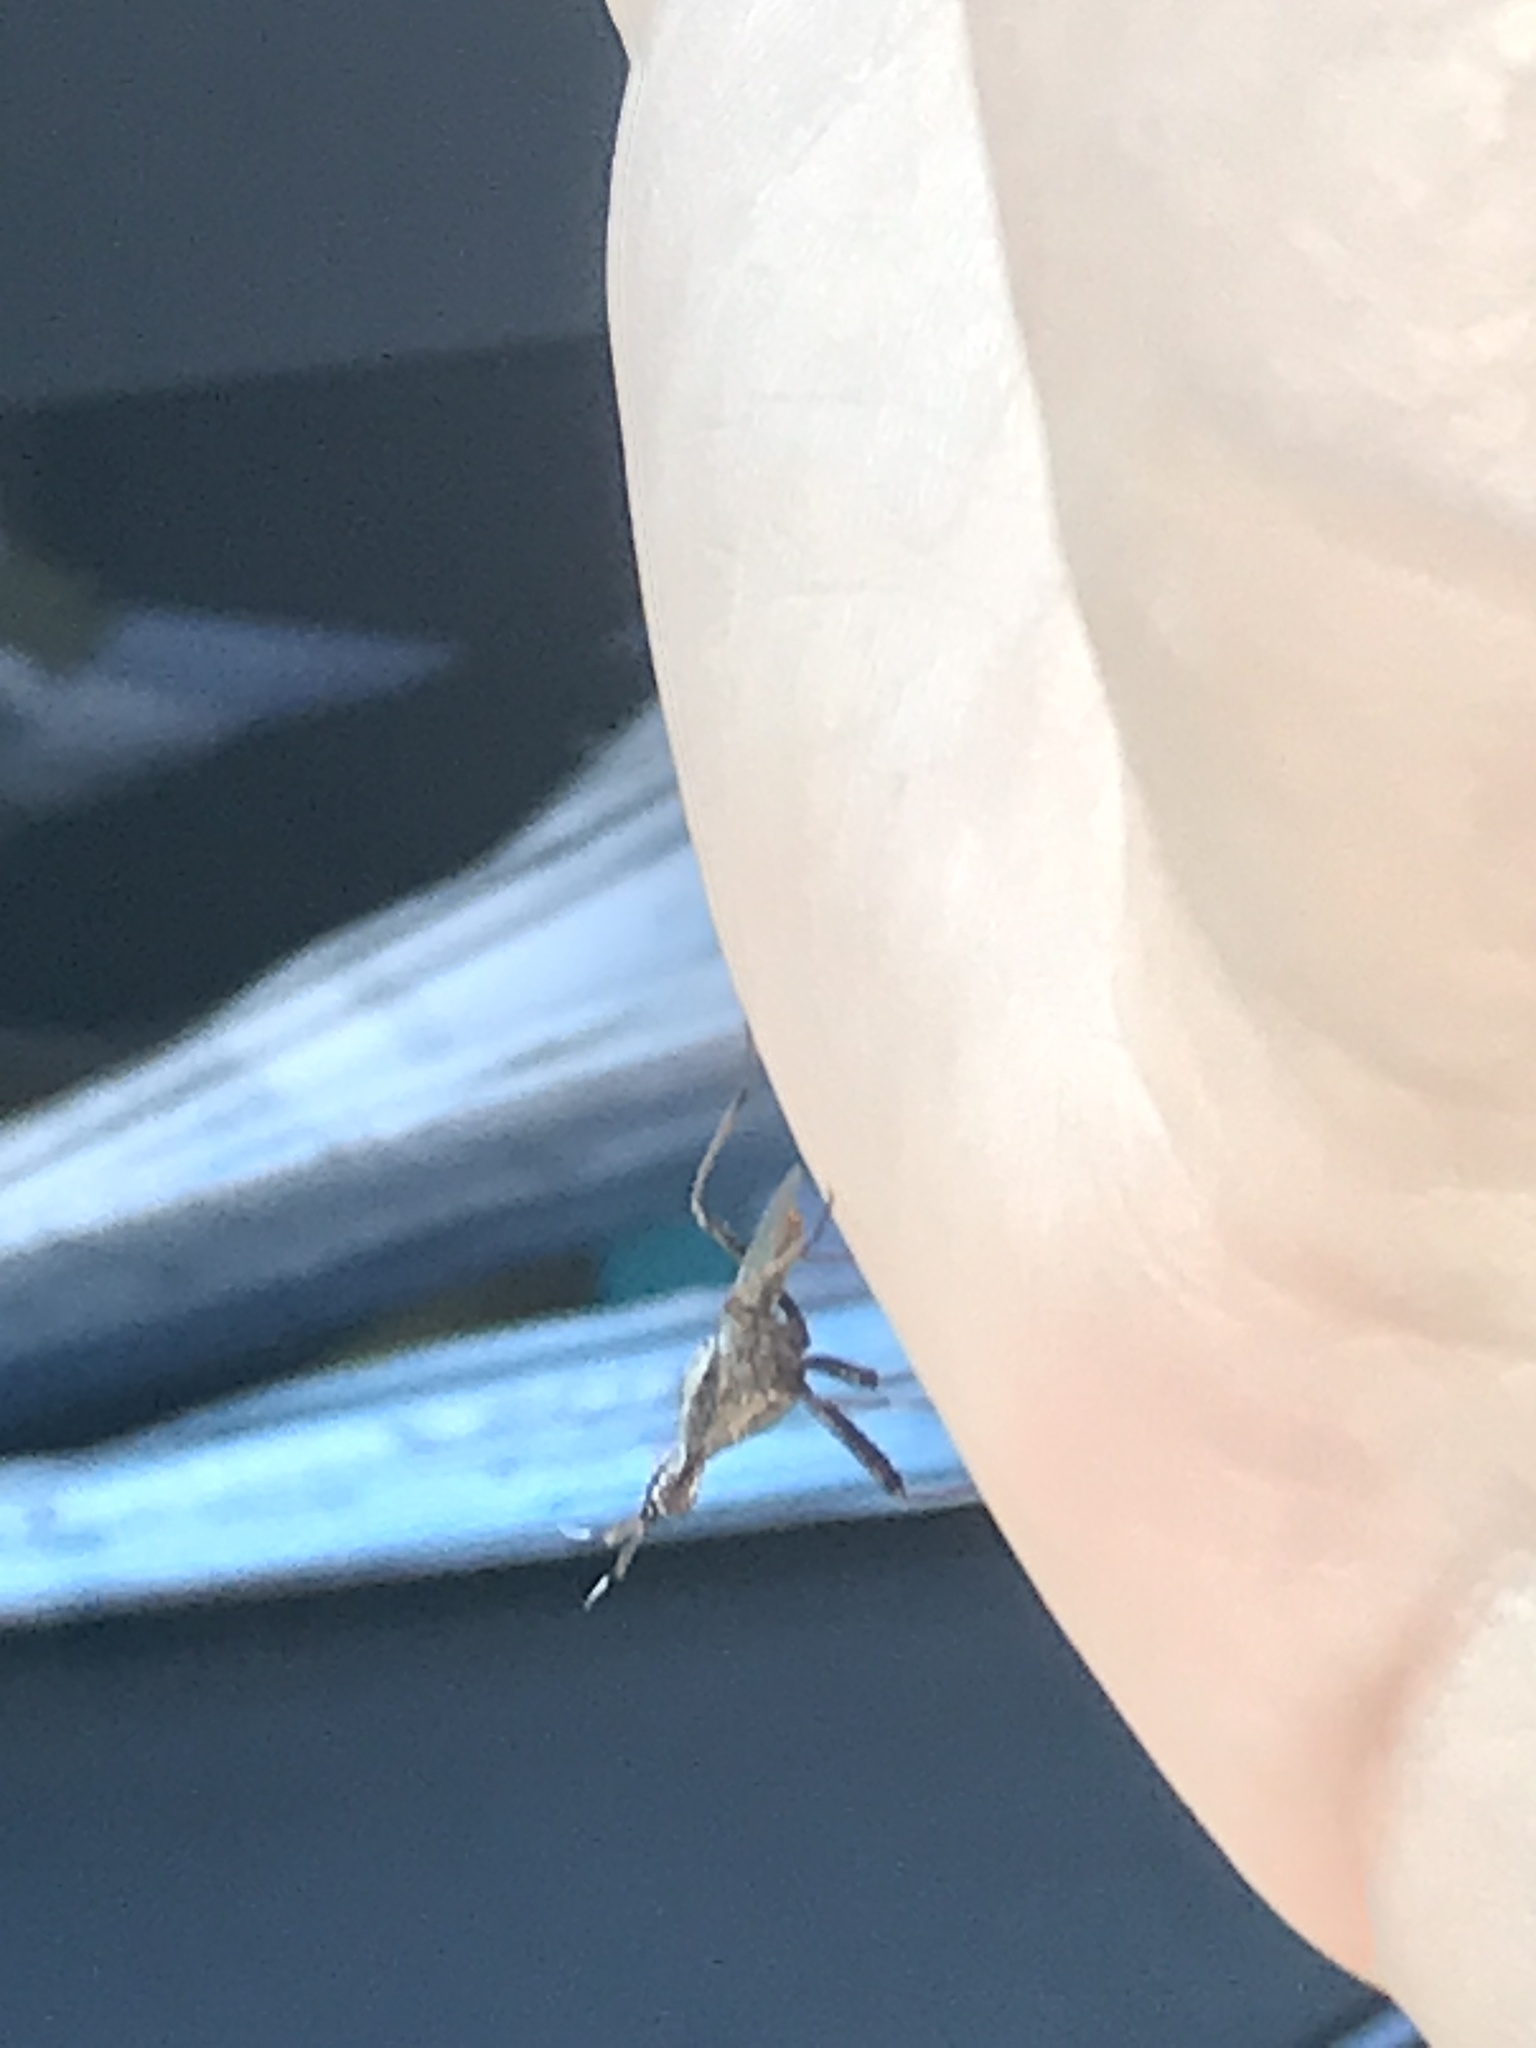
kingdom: Animalia
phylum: Arthropoda
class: Insecta
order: Diptera
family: Neriidae
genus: Odontoloxozus
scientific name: Odontoloxozus longicornis
